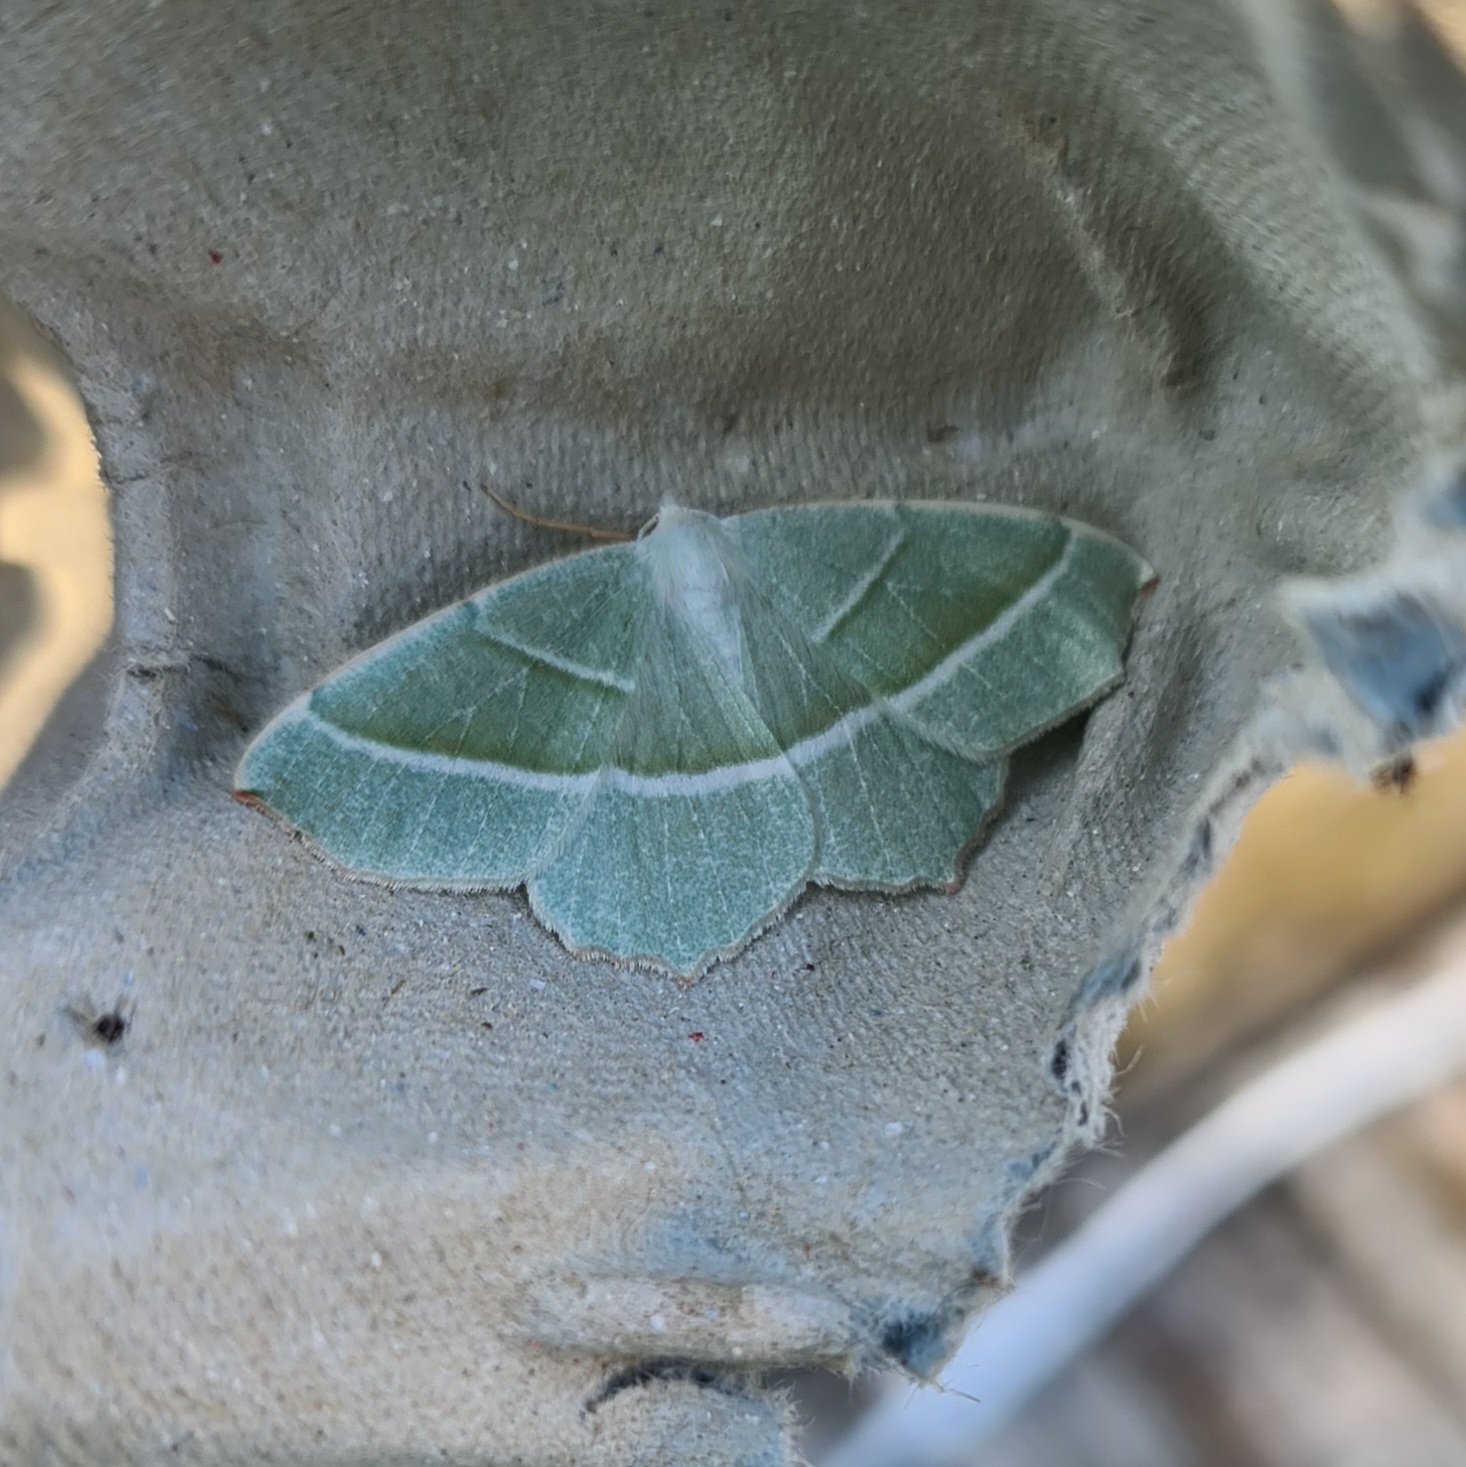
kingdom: Animalia
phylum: Arthropoda
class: Insecta
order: Lepidoptera
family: Geometridae
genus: Campaea
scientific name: Campaea margaritaria
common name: Light emerald
